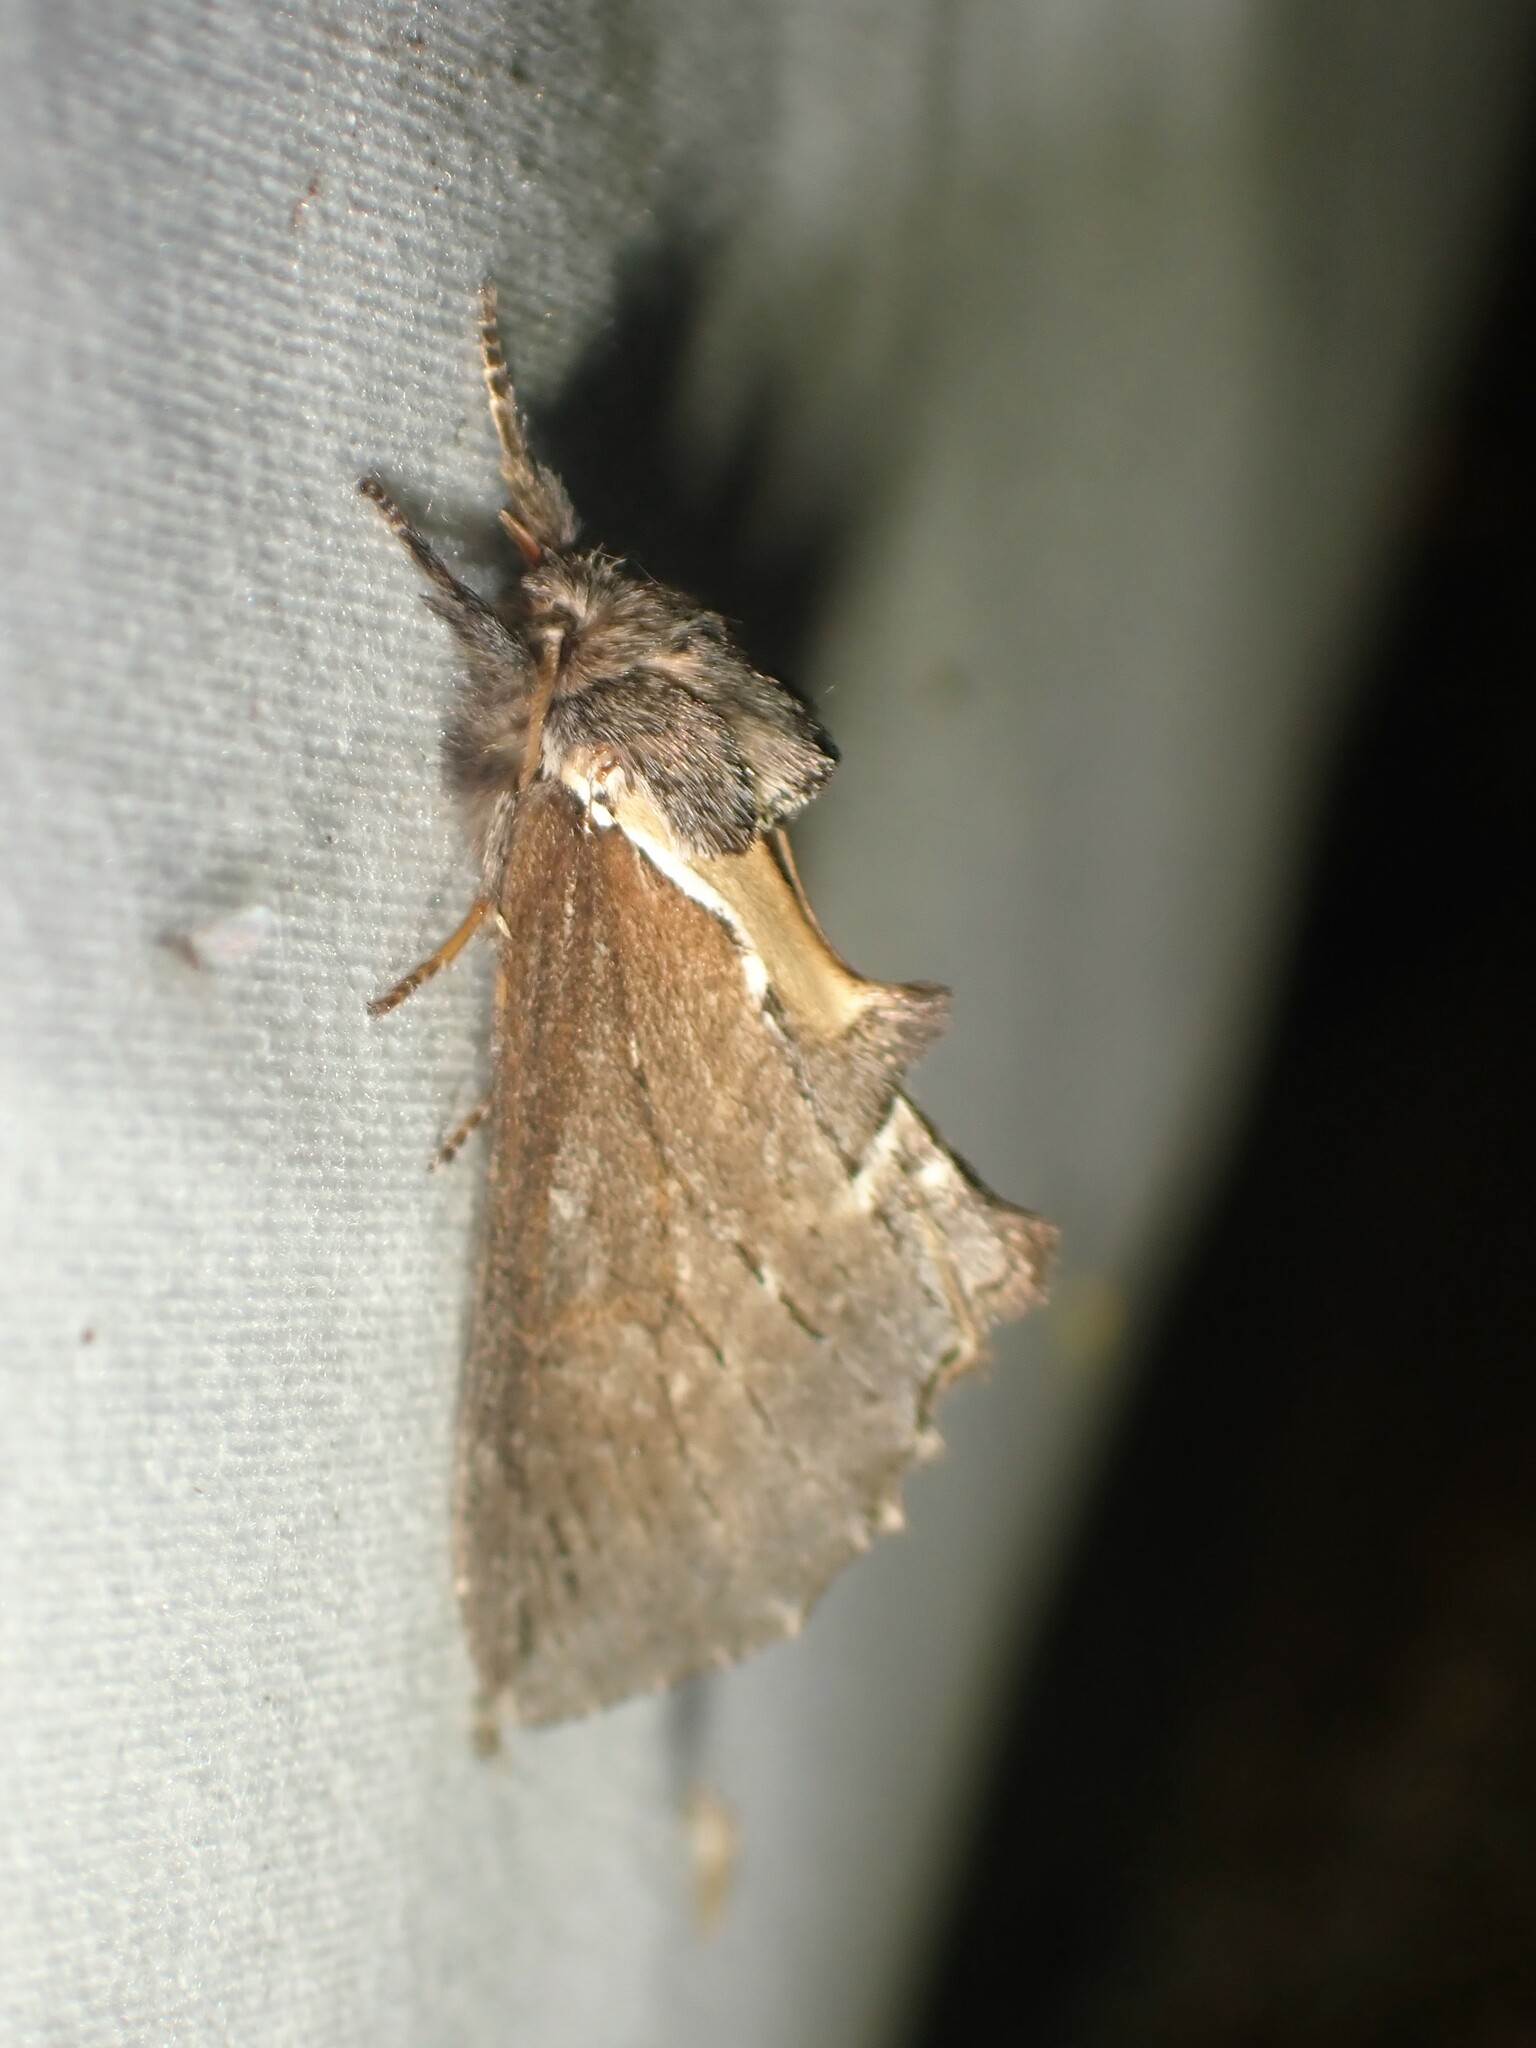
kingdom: Animalia
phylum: Arthropoda
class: Insecta
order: Lepidoptera
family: Notodontidae
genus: Pheosidea
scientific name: Pheosidea elegans
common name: Elegant prominent
